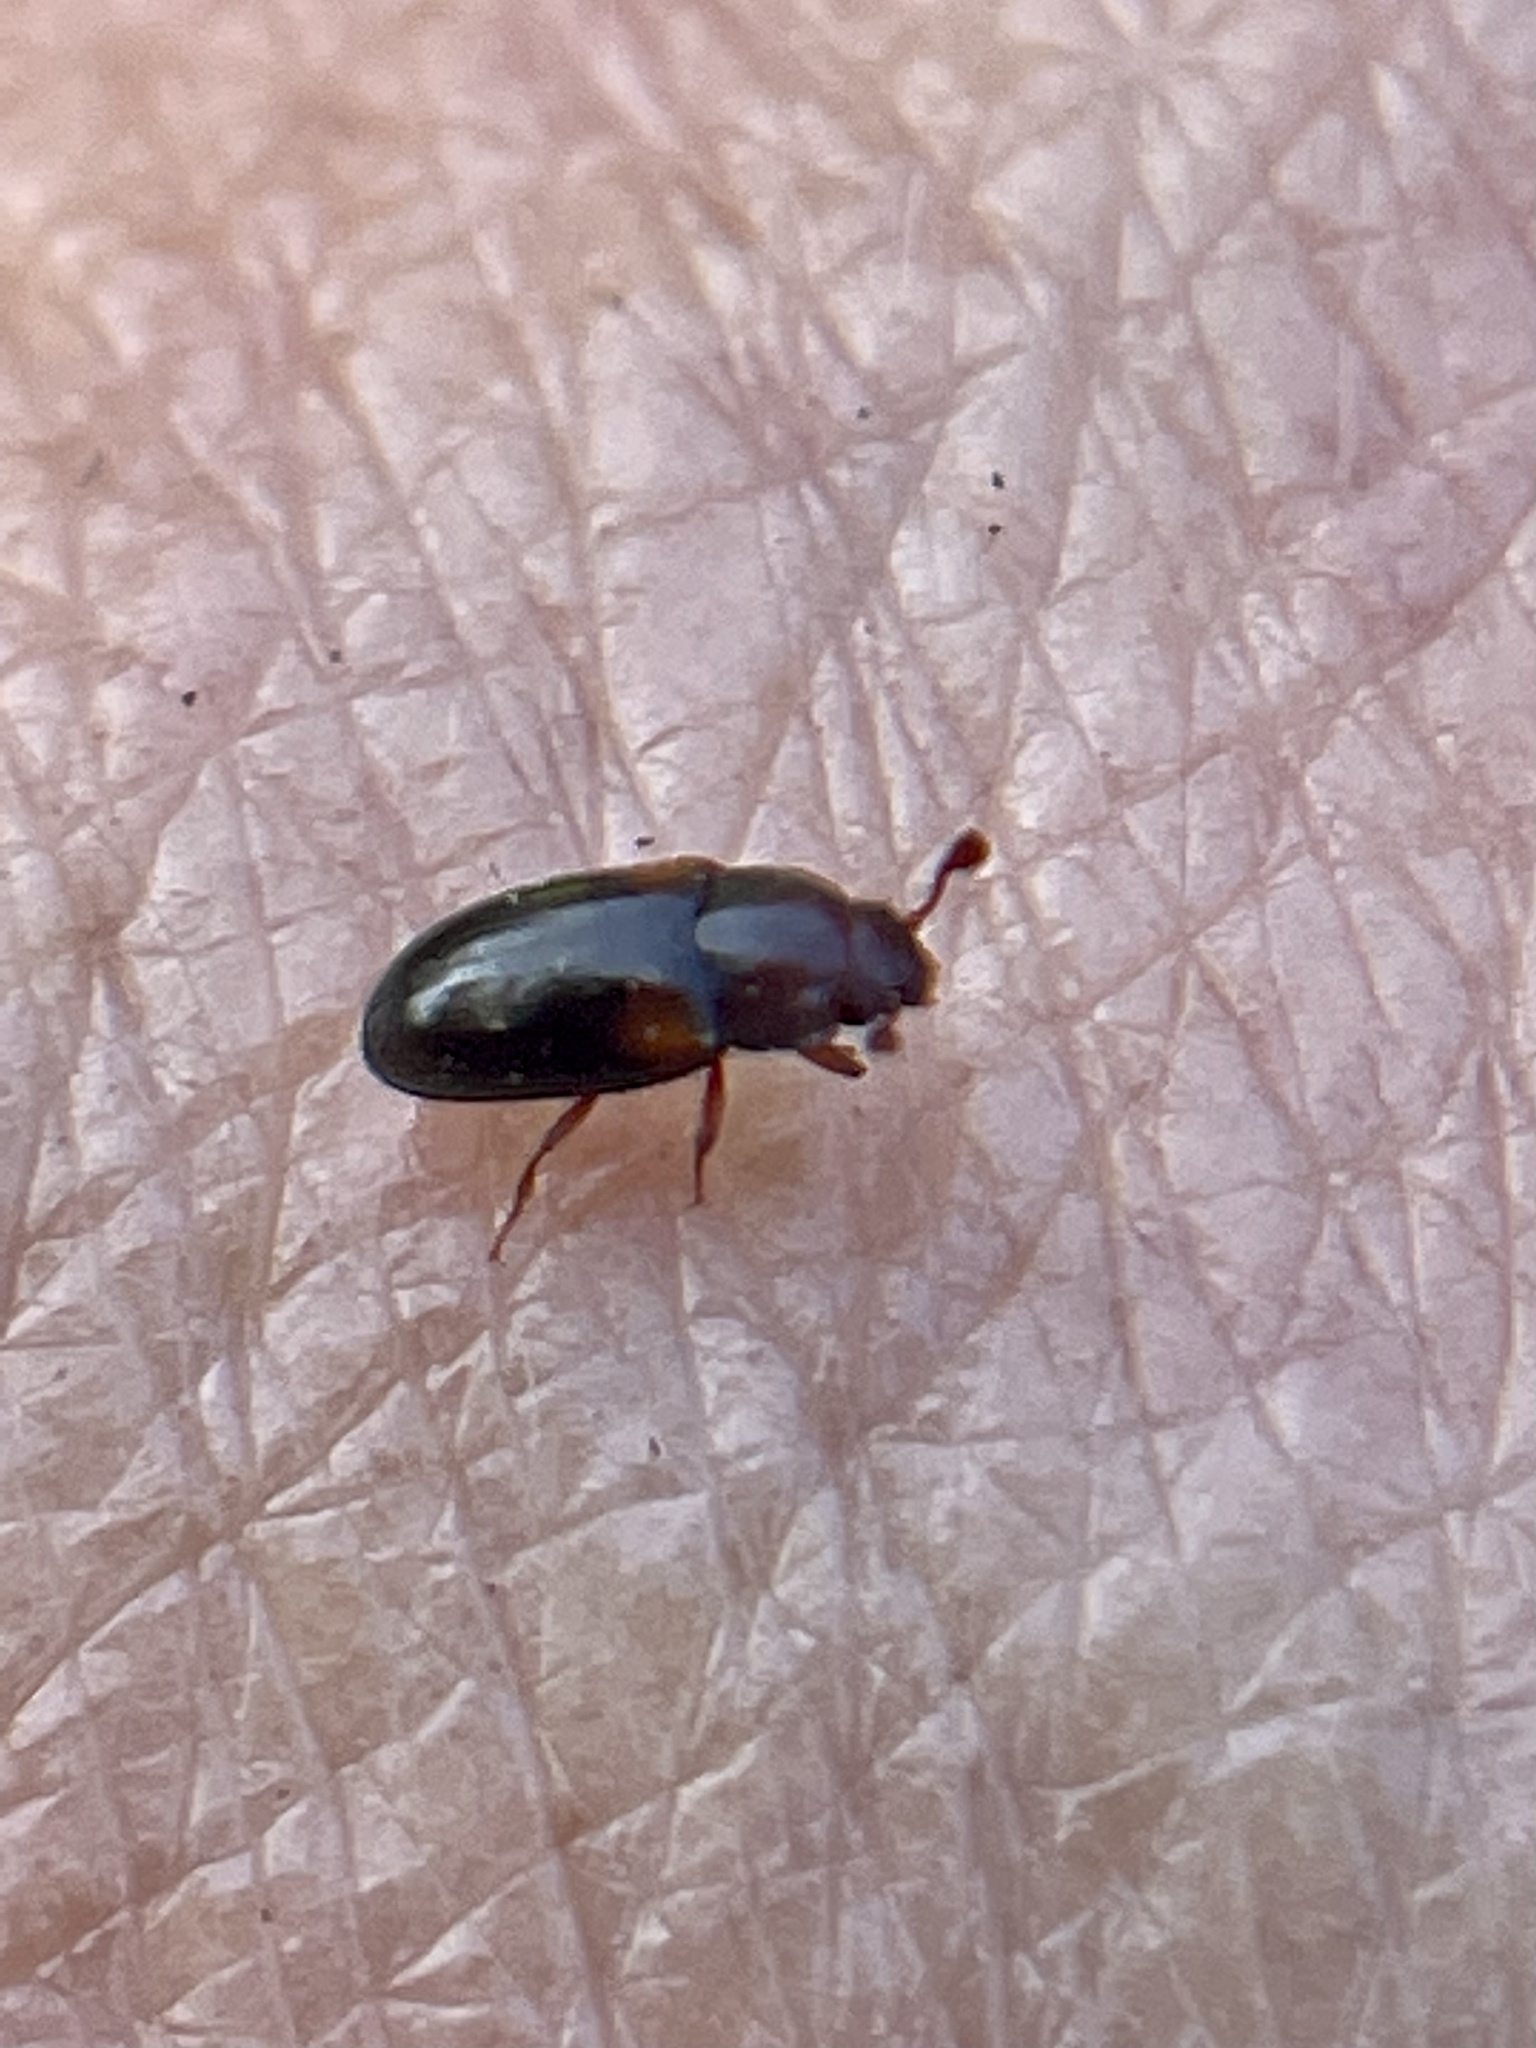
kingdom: Animalia
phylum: Arthropoda
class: Insecta
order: Coleoptera
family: Erotylidae
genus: Dacne
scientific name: Dacne californica
